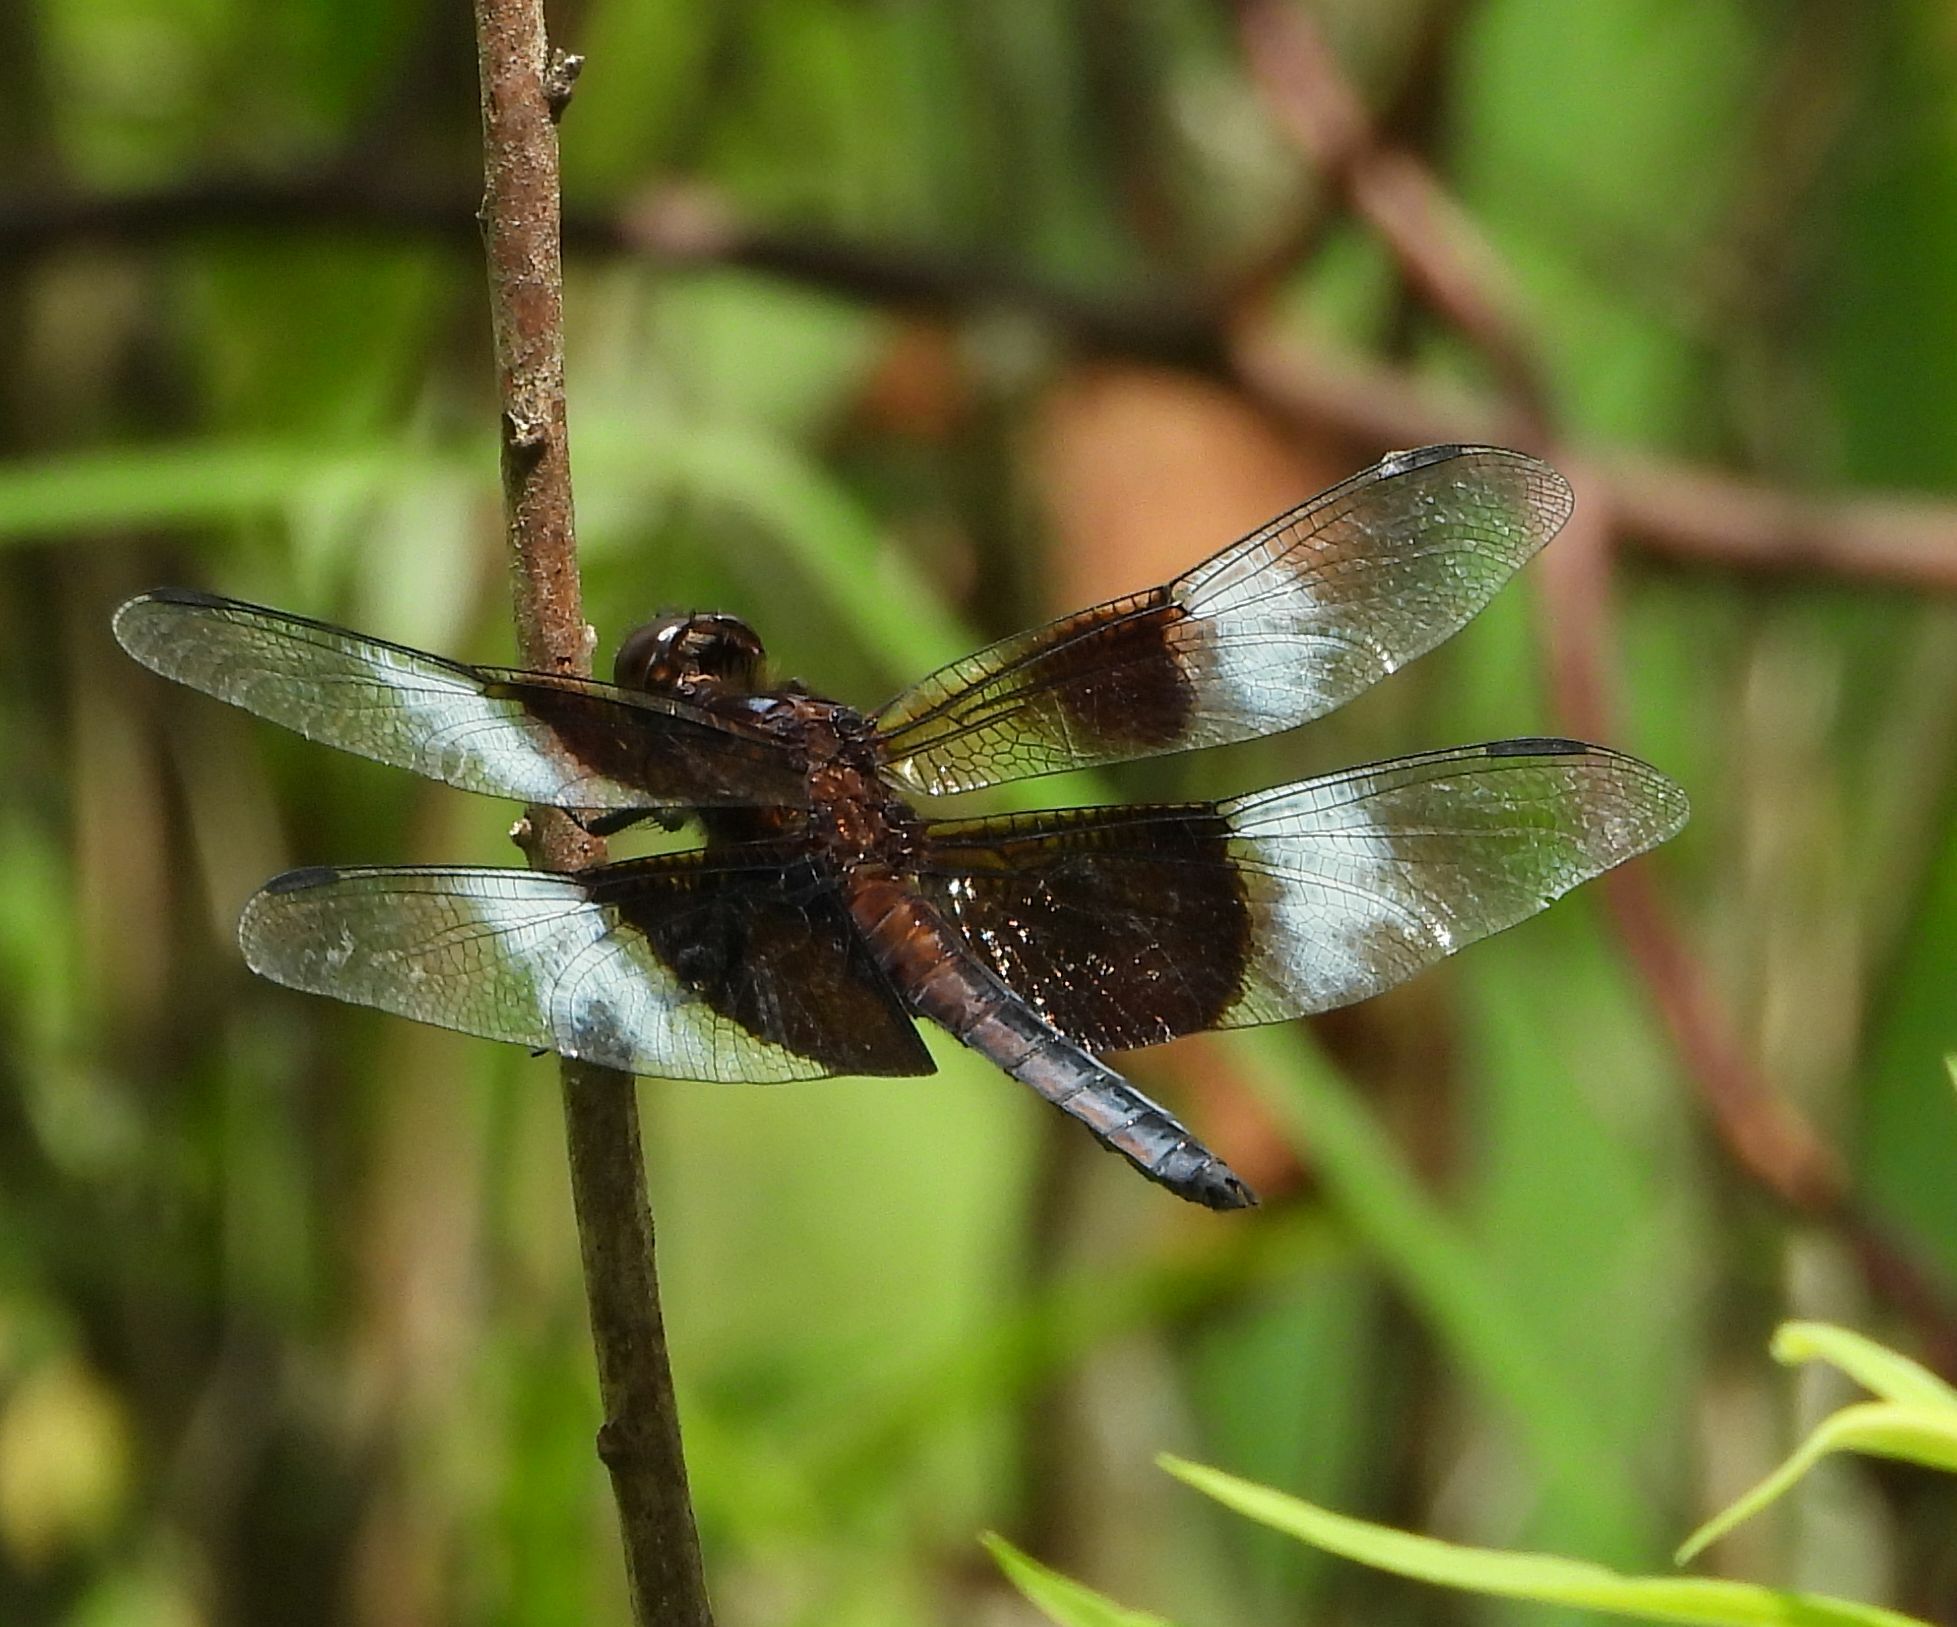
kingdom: Animalia
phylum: Arthropoda
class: Insecta
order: Odonata
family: Libellulidae
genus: Libellula
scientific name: Libellula luctuosa
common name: Widow skimmer
